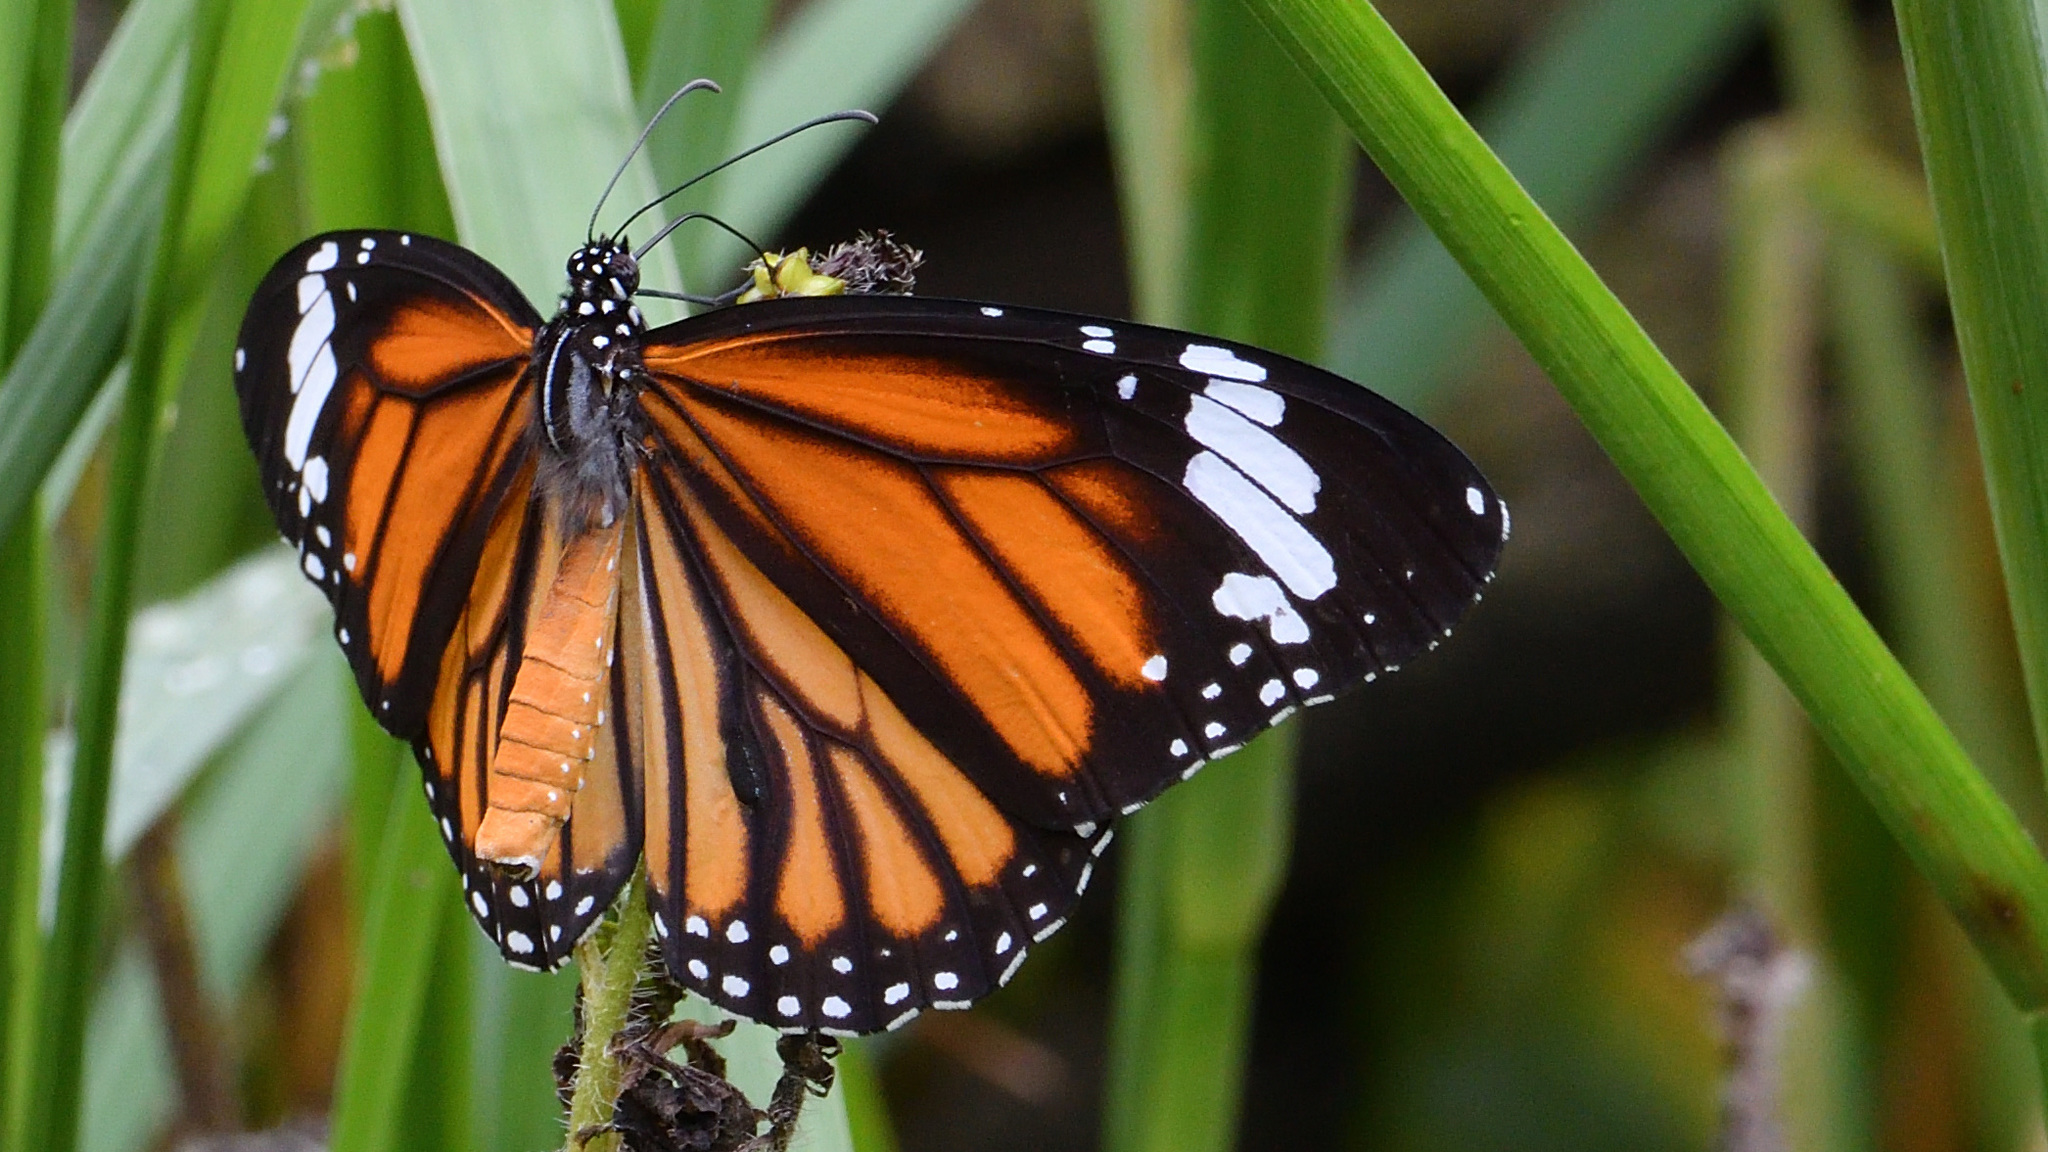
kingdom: Animalia
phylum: Arthropoda
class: Insecta
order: Lepidoptera
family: Nymphalidae
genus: Danaus
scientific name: Danaus genutia
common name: Common tiger butterfly
